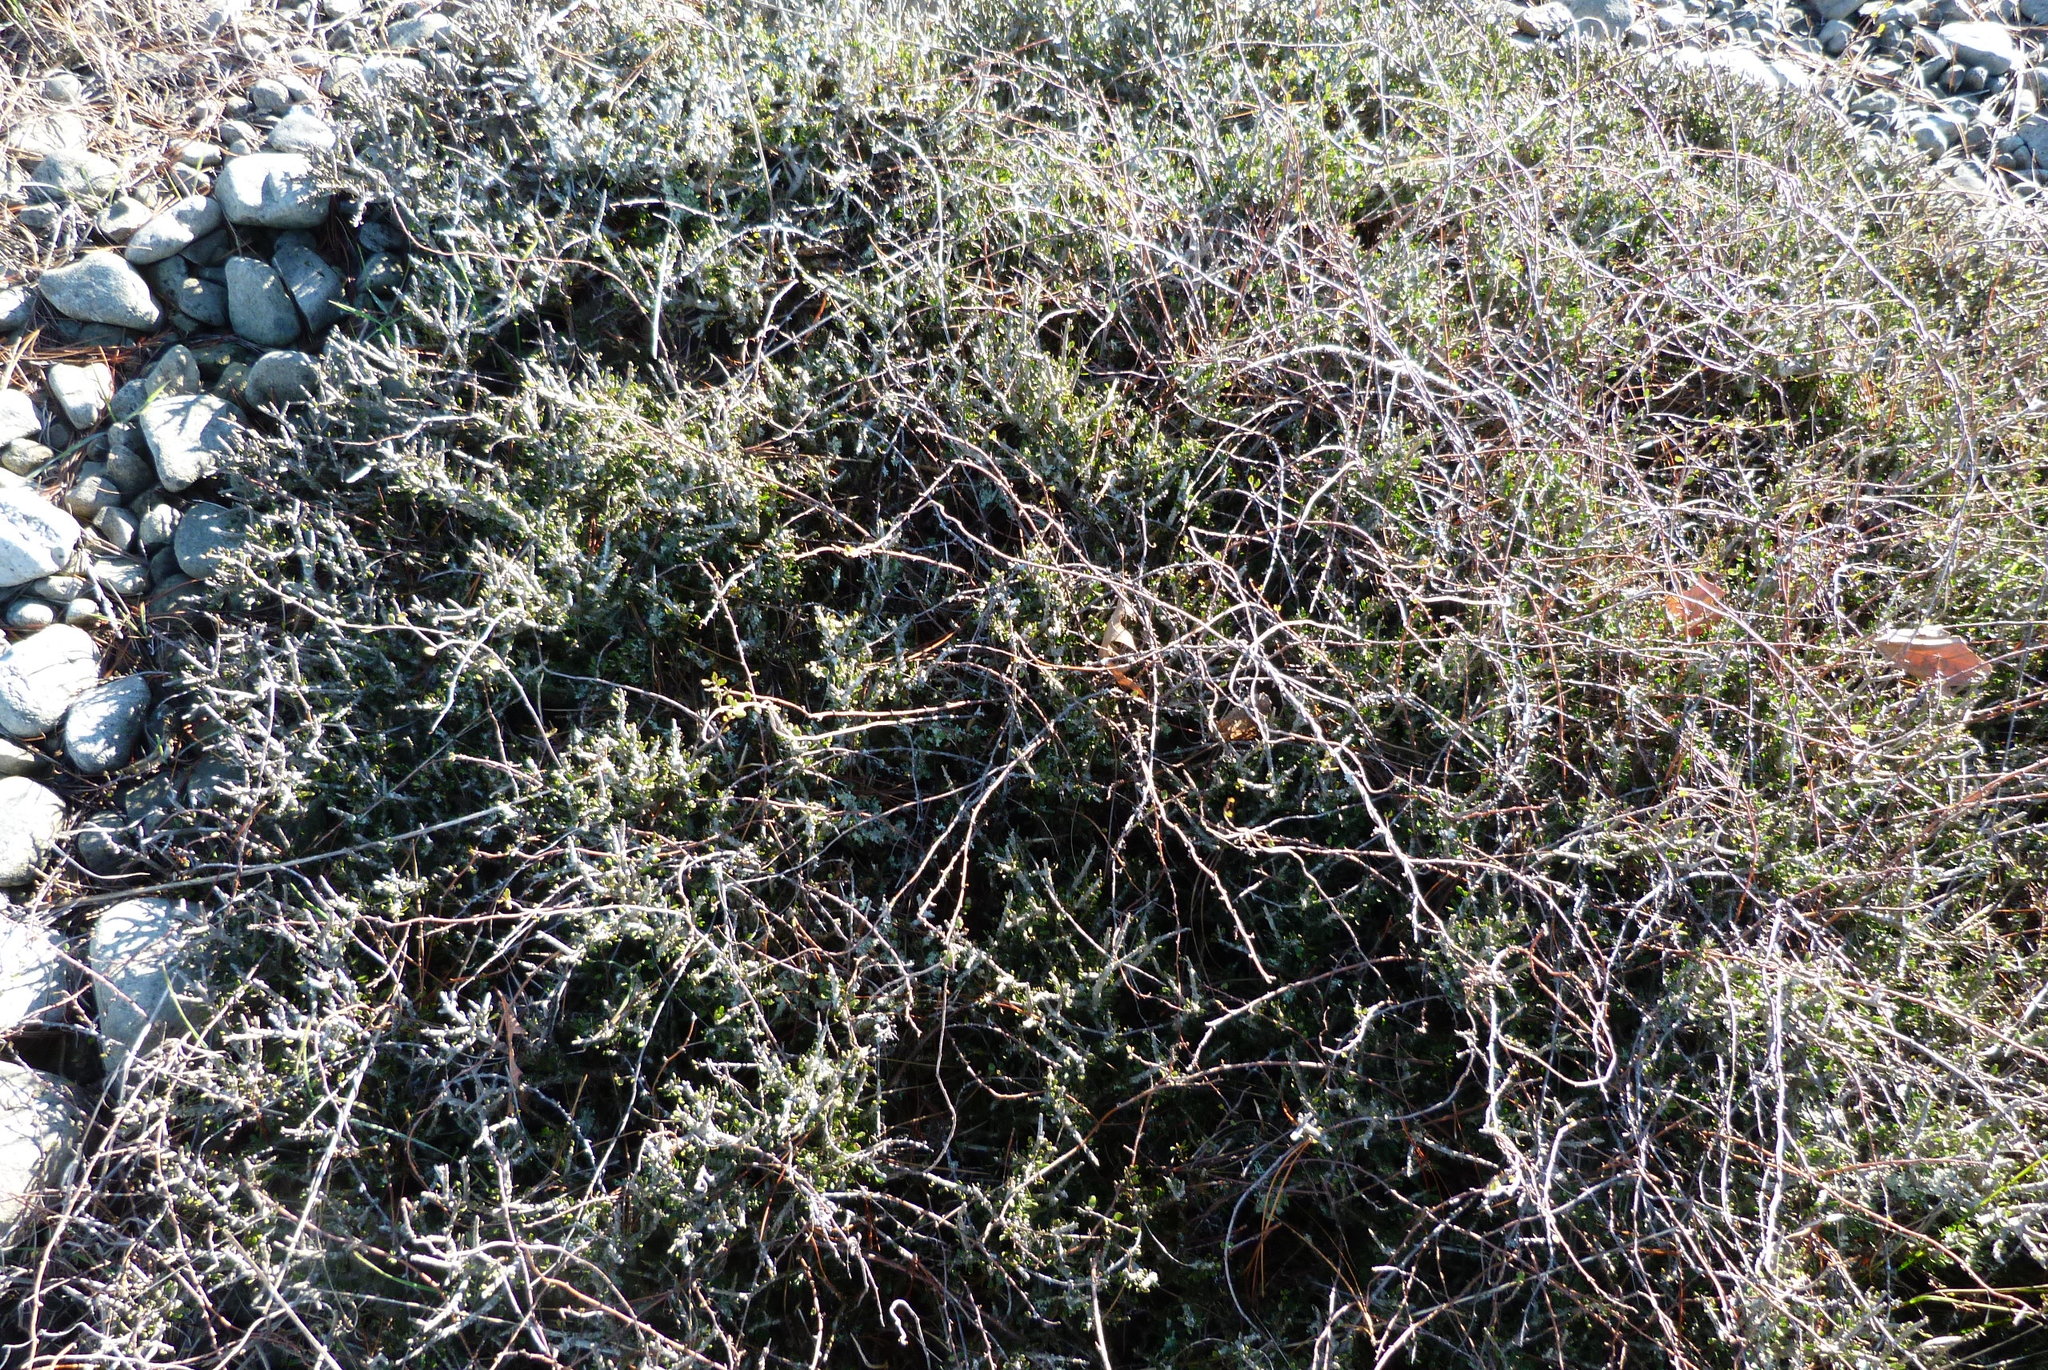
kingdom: Plantae
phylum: Tracheophyta
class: Magnoliopsida
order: Malpighiales
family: Violaceae
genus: Melicytus
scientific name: Melicytus alpinus
